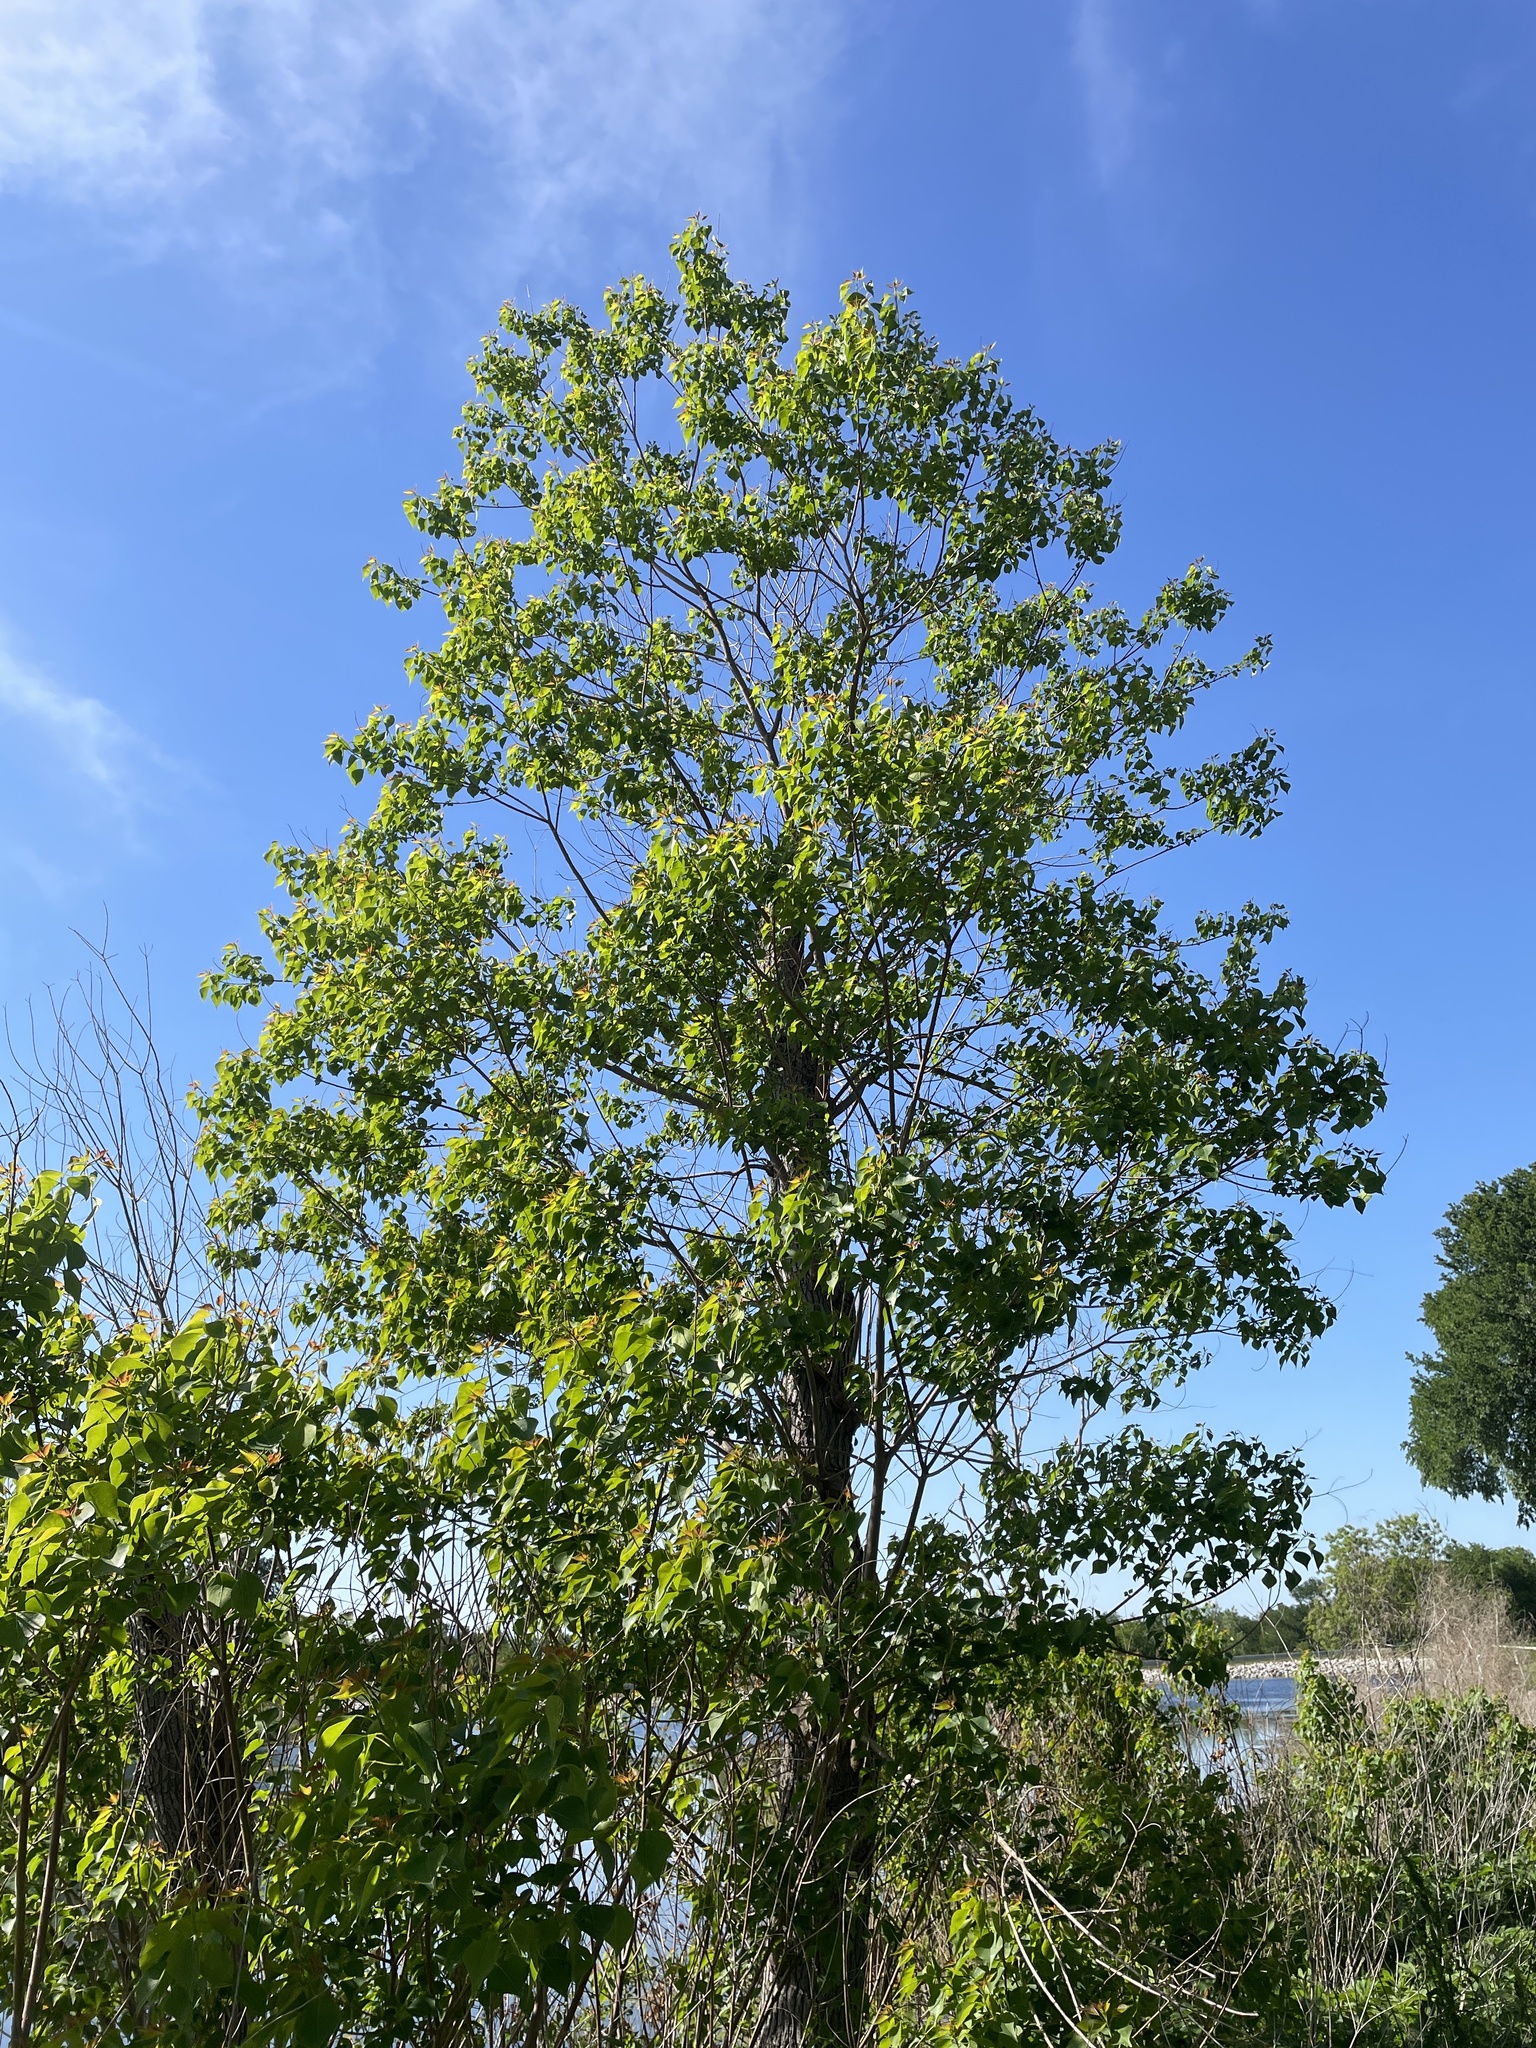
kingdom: Plantae
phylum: Tracheophyta
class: Magnoliopsida
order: Malpighiales
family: Euphorbiaceae
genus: Triadica
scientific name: Triadica sebifera
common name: Chinese tallow
